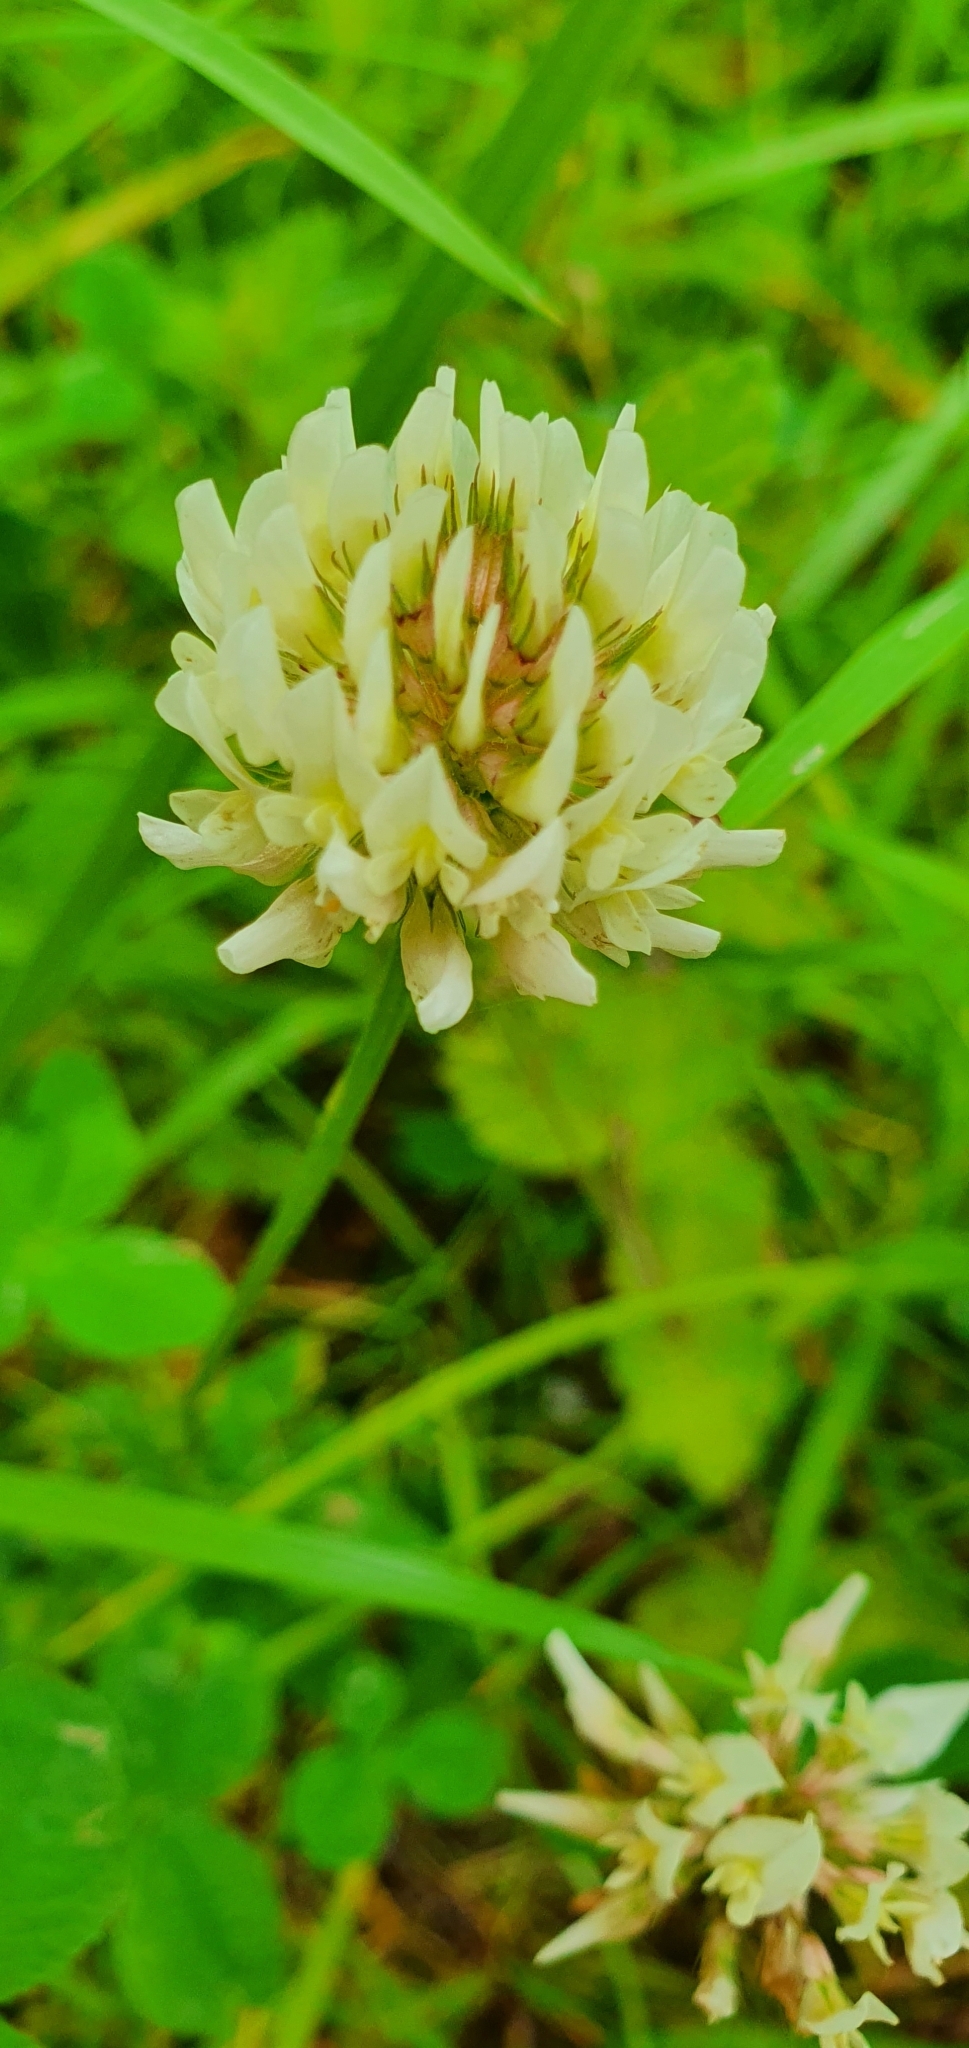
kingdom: Plantae
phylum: Tracheophyta
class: Magnoliopsida
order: Fabales
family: Fabaceae
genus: Trifolium
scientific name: Trifolium repens
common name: White clover
